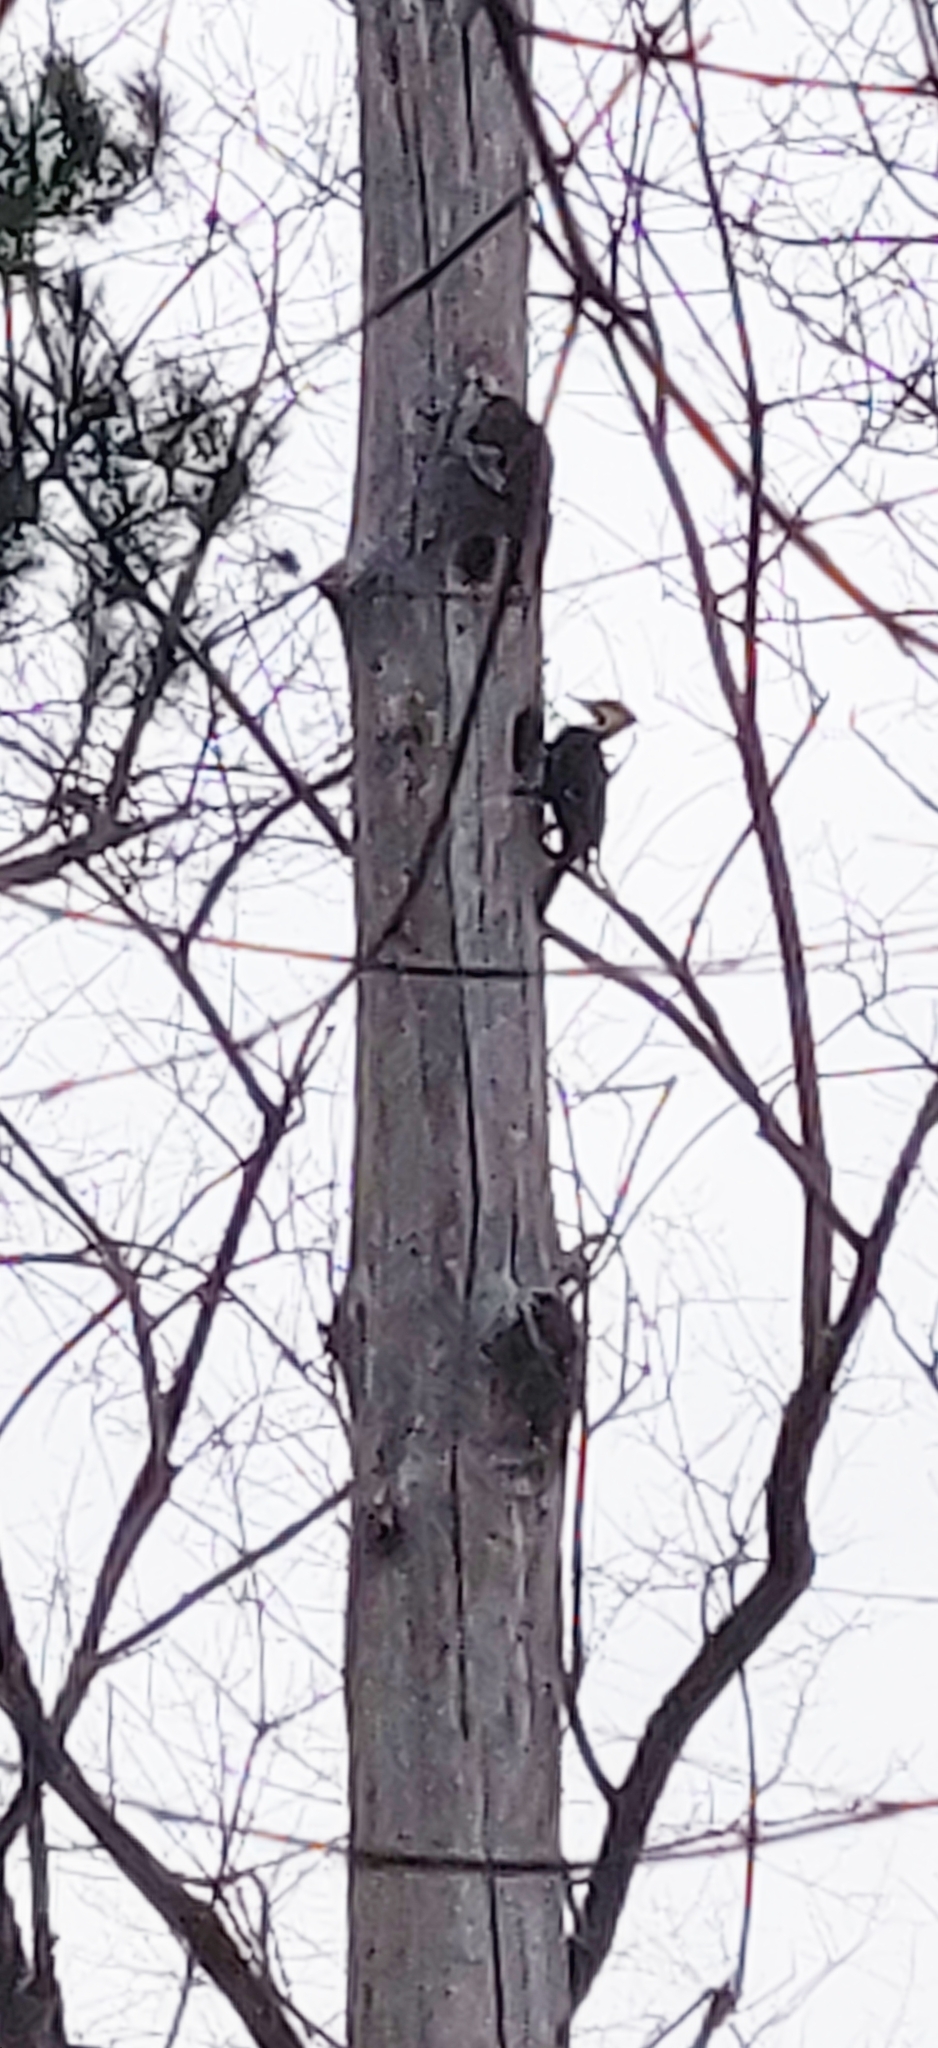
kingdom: Animalia
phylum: Chordata
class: Aves
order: Piciformes
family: Picidae
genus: Dryocopus
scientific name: Dryocopus pileatus
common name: Pileated woodpecker
